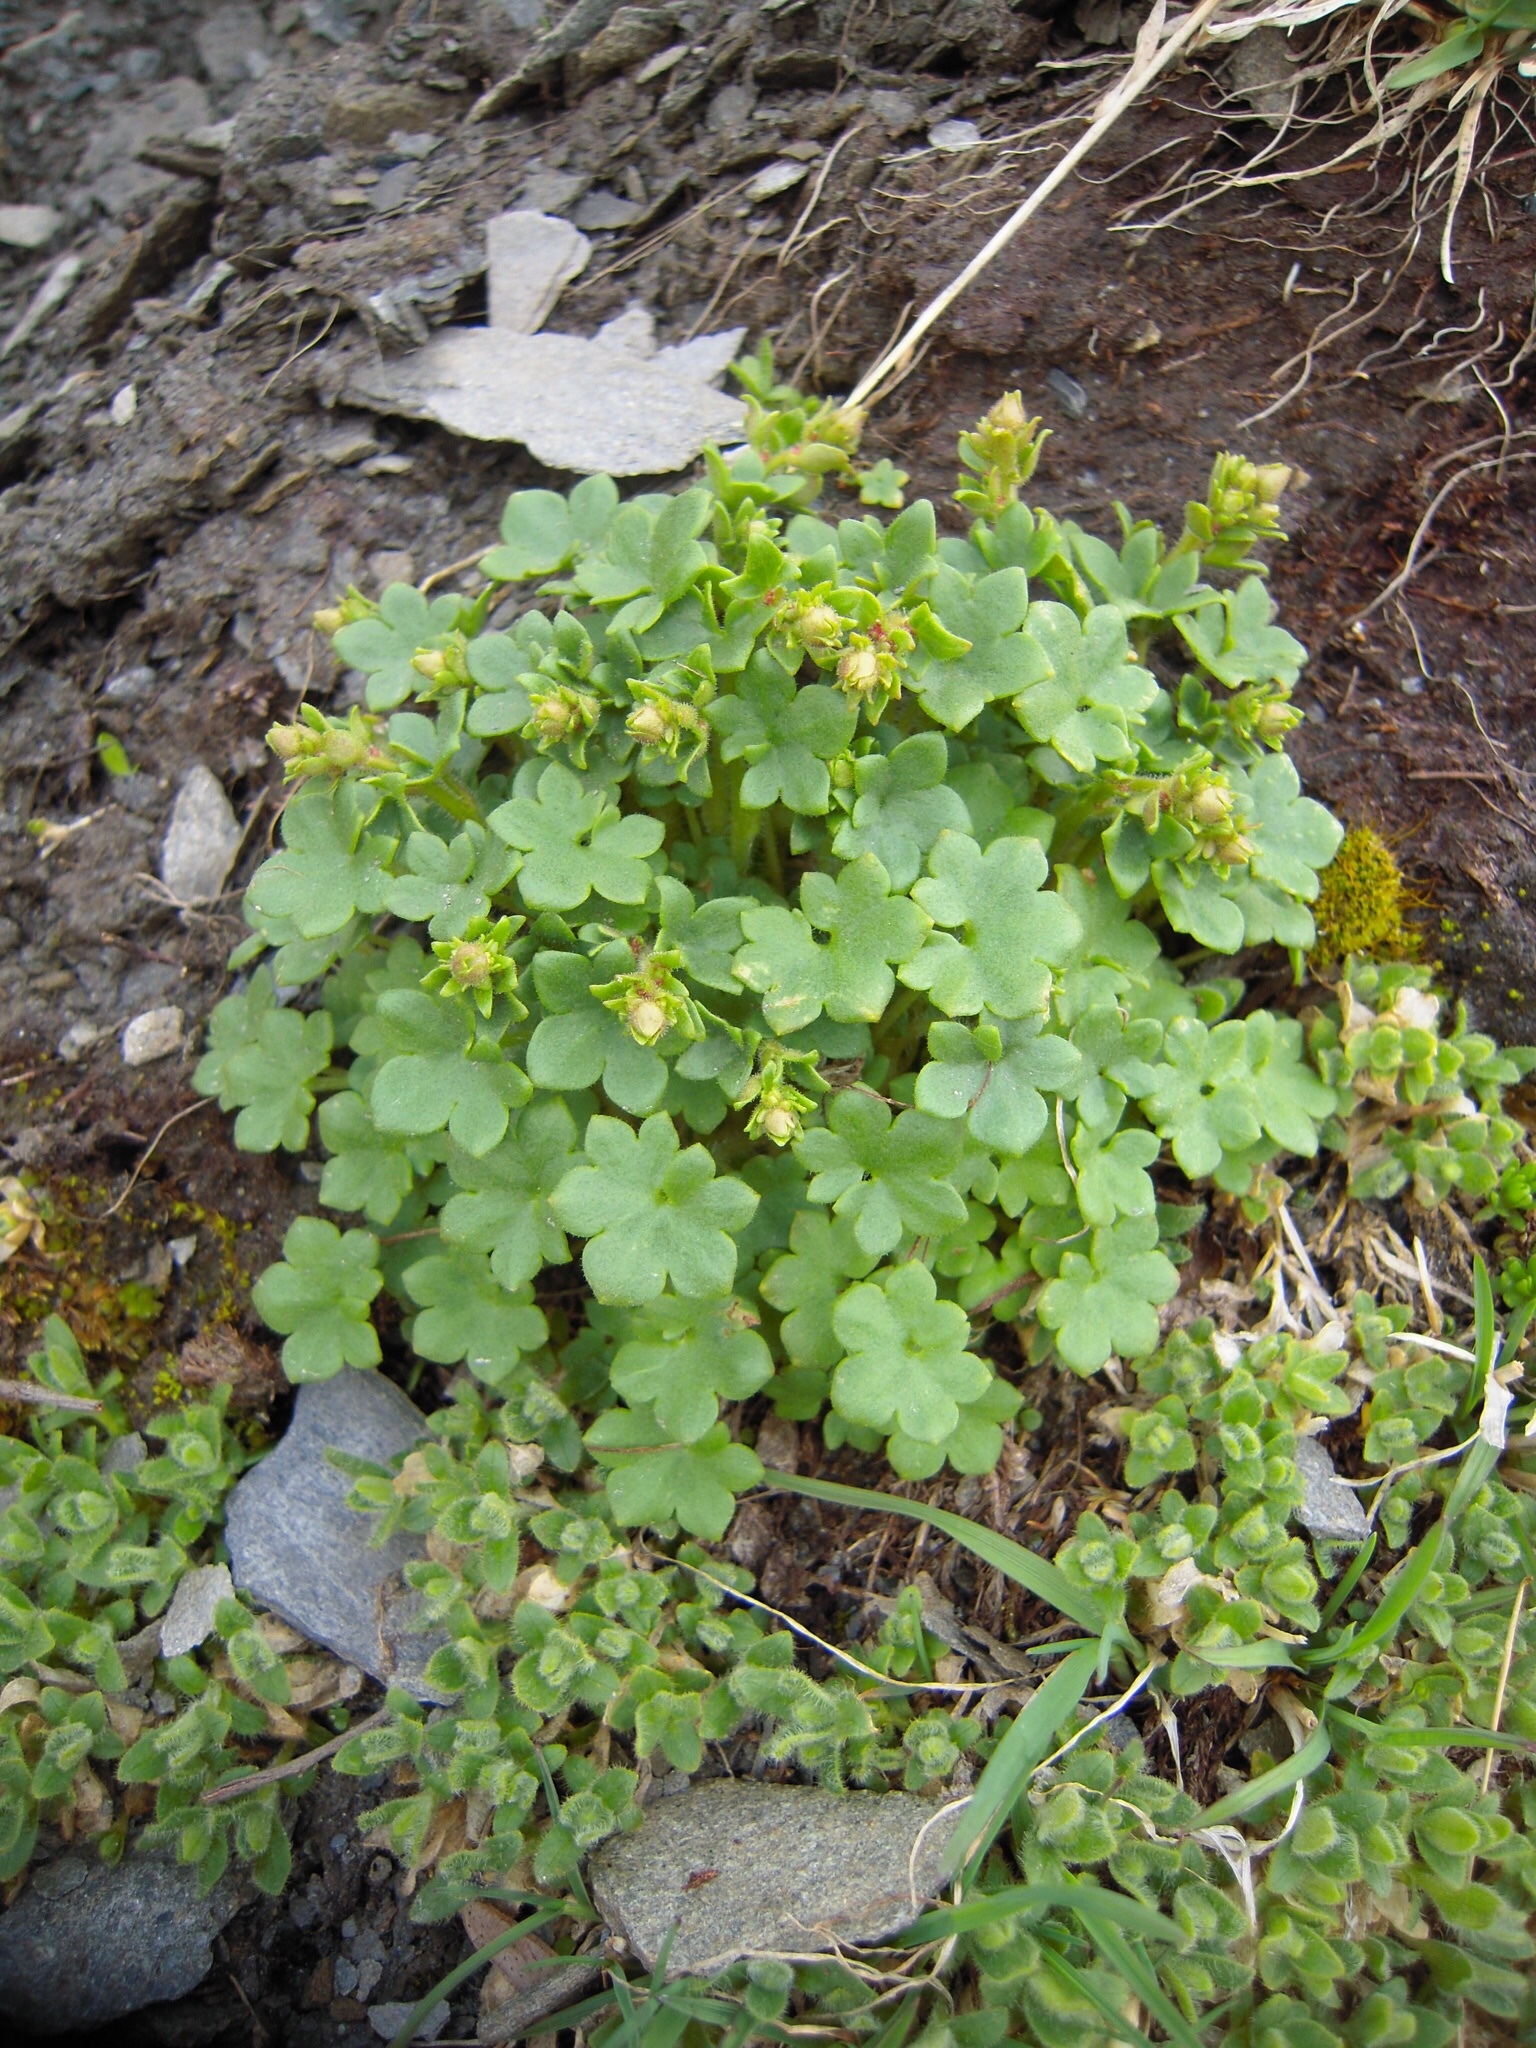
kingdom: Plantae
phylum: Tracheophyta
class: Magnoliopsida
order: Saxifragales
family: Saxifragaceae
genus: Saxifraga
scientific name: Saxifraga cernua
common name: Drooping saxifrage
